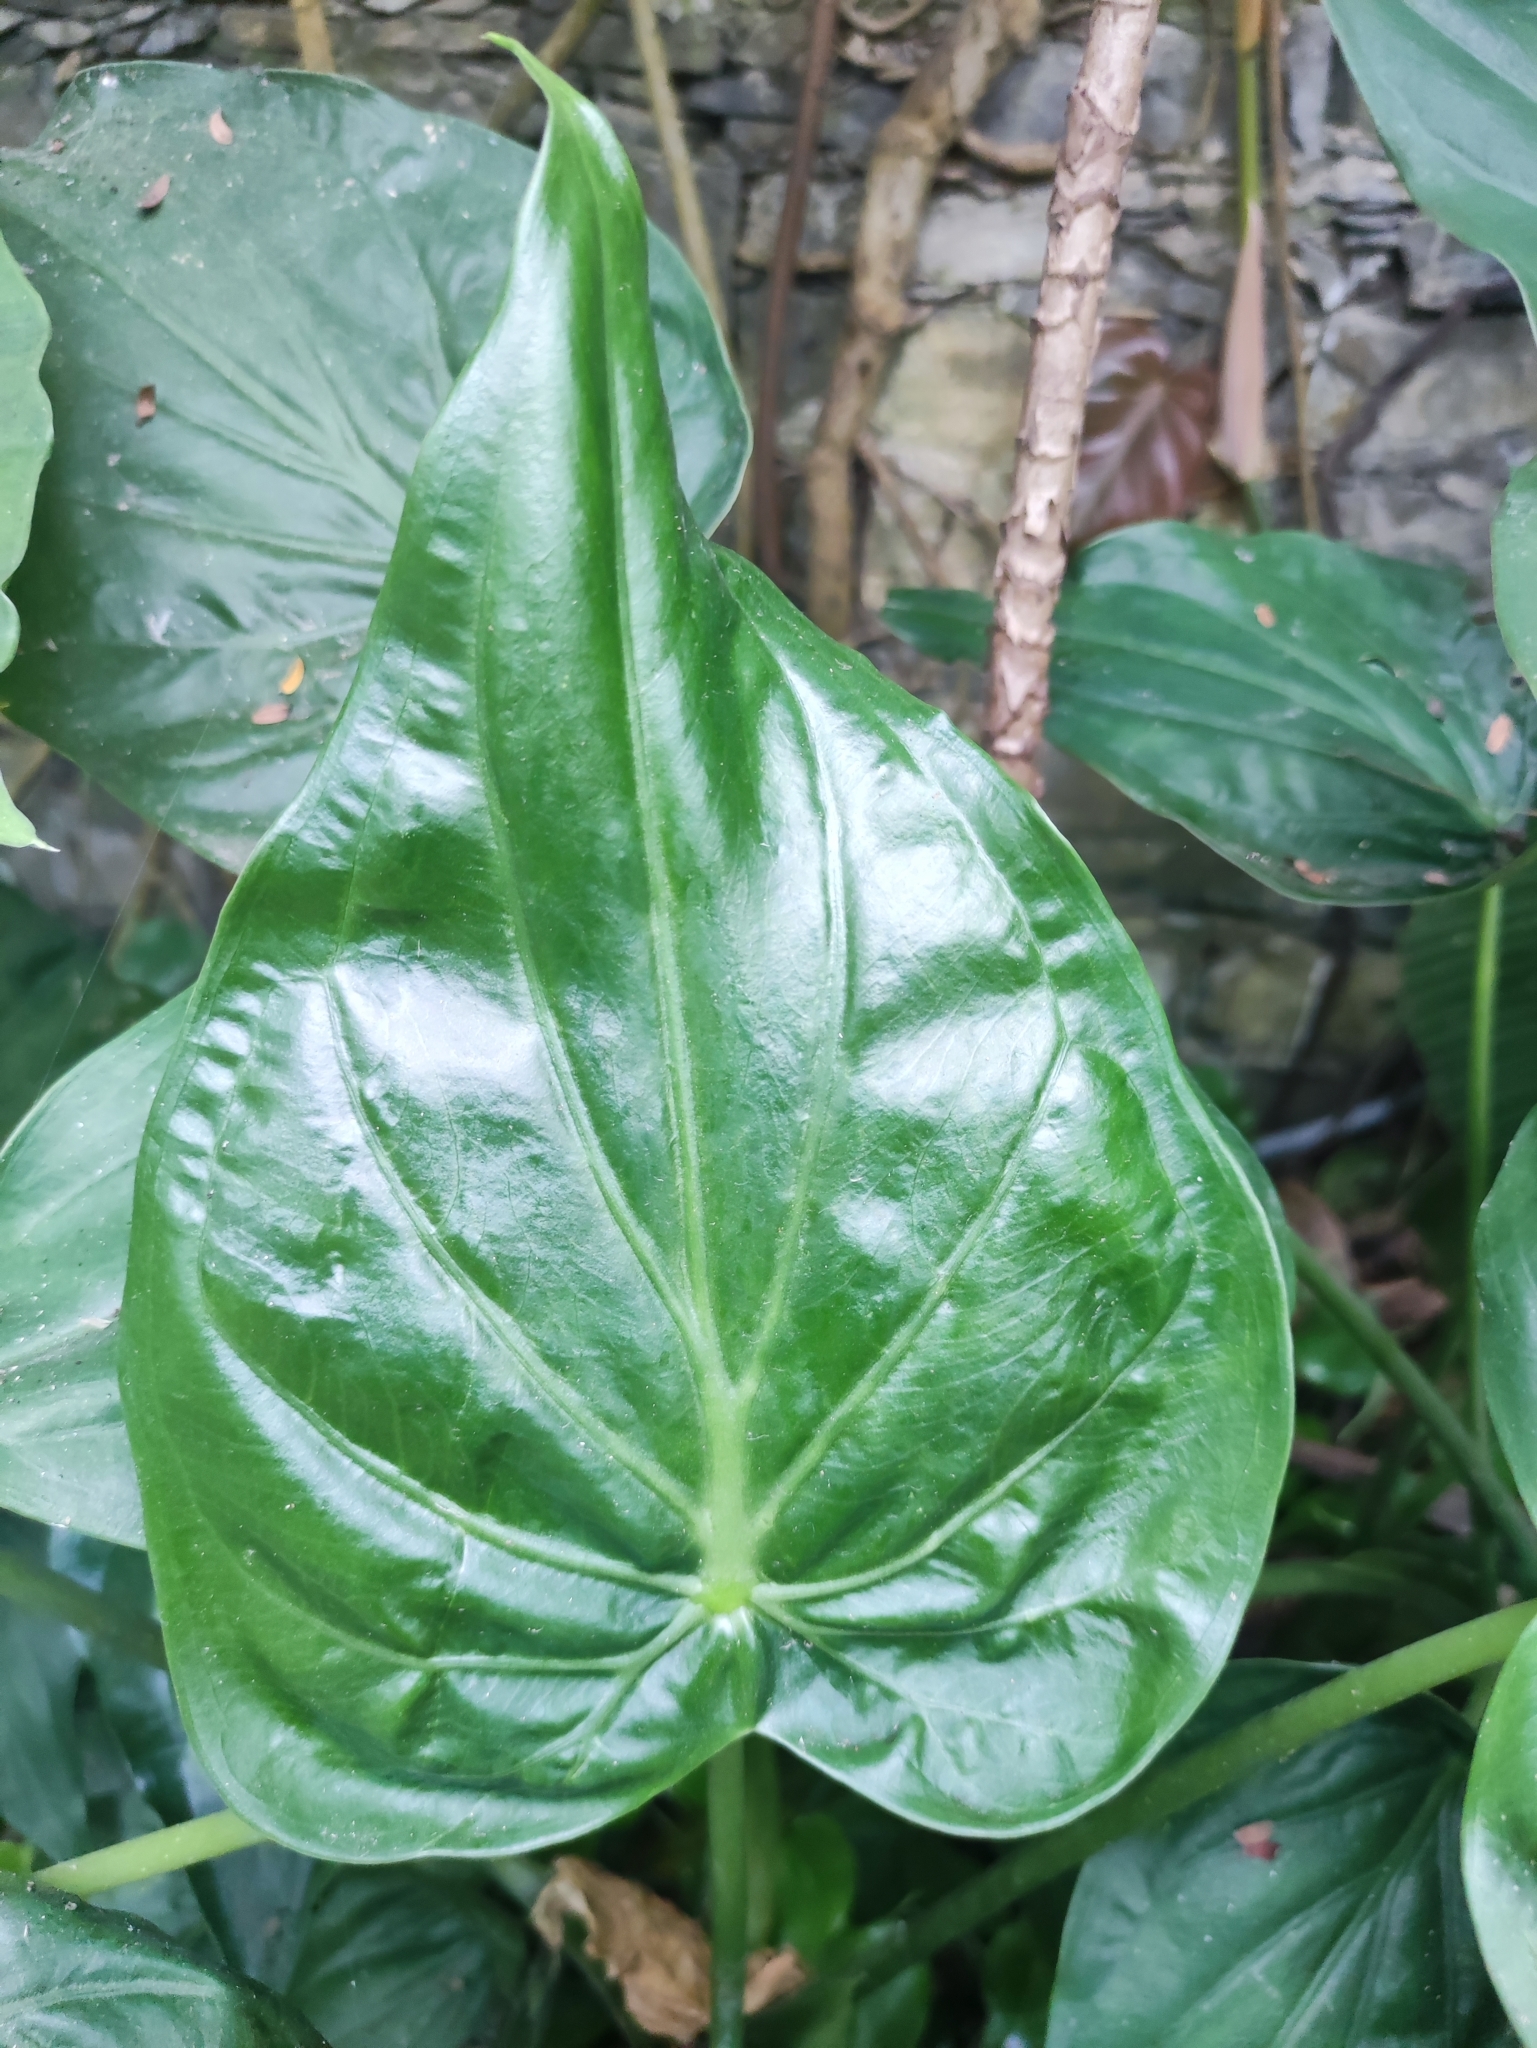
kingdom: Plantae
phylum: Tracheophyta
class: Liliopsida
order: Alismatales
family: Araceae
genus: Alocasia
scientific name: Alocasia cucullata
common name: Buddha's hand
